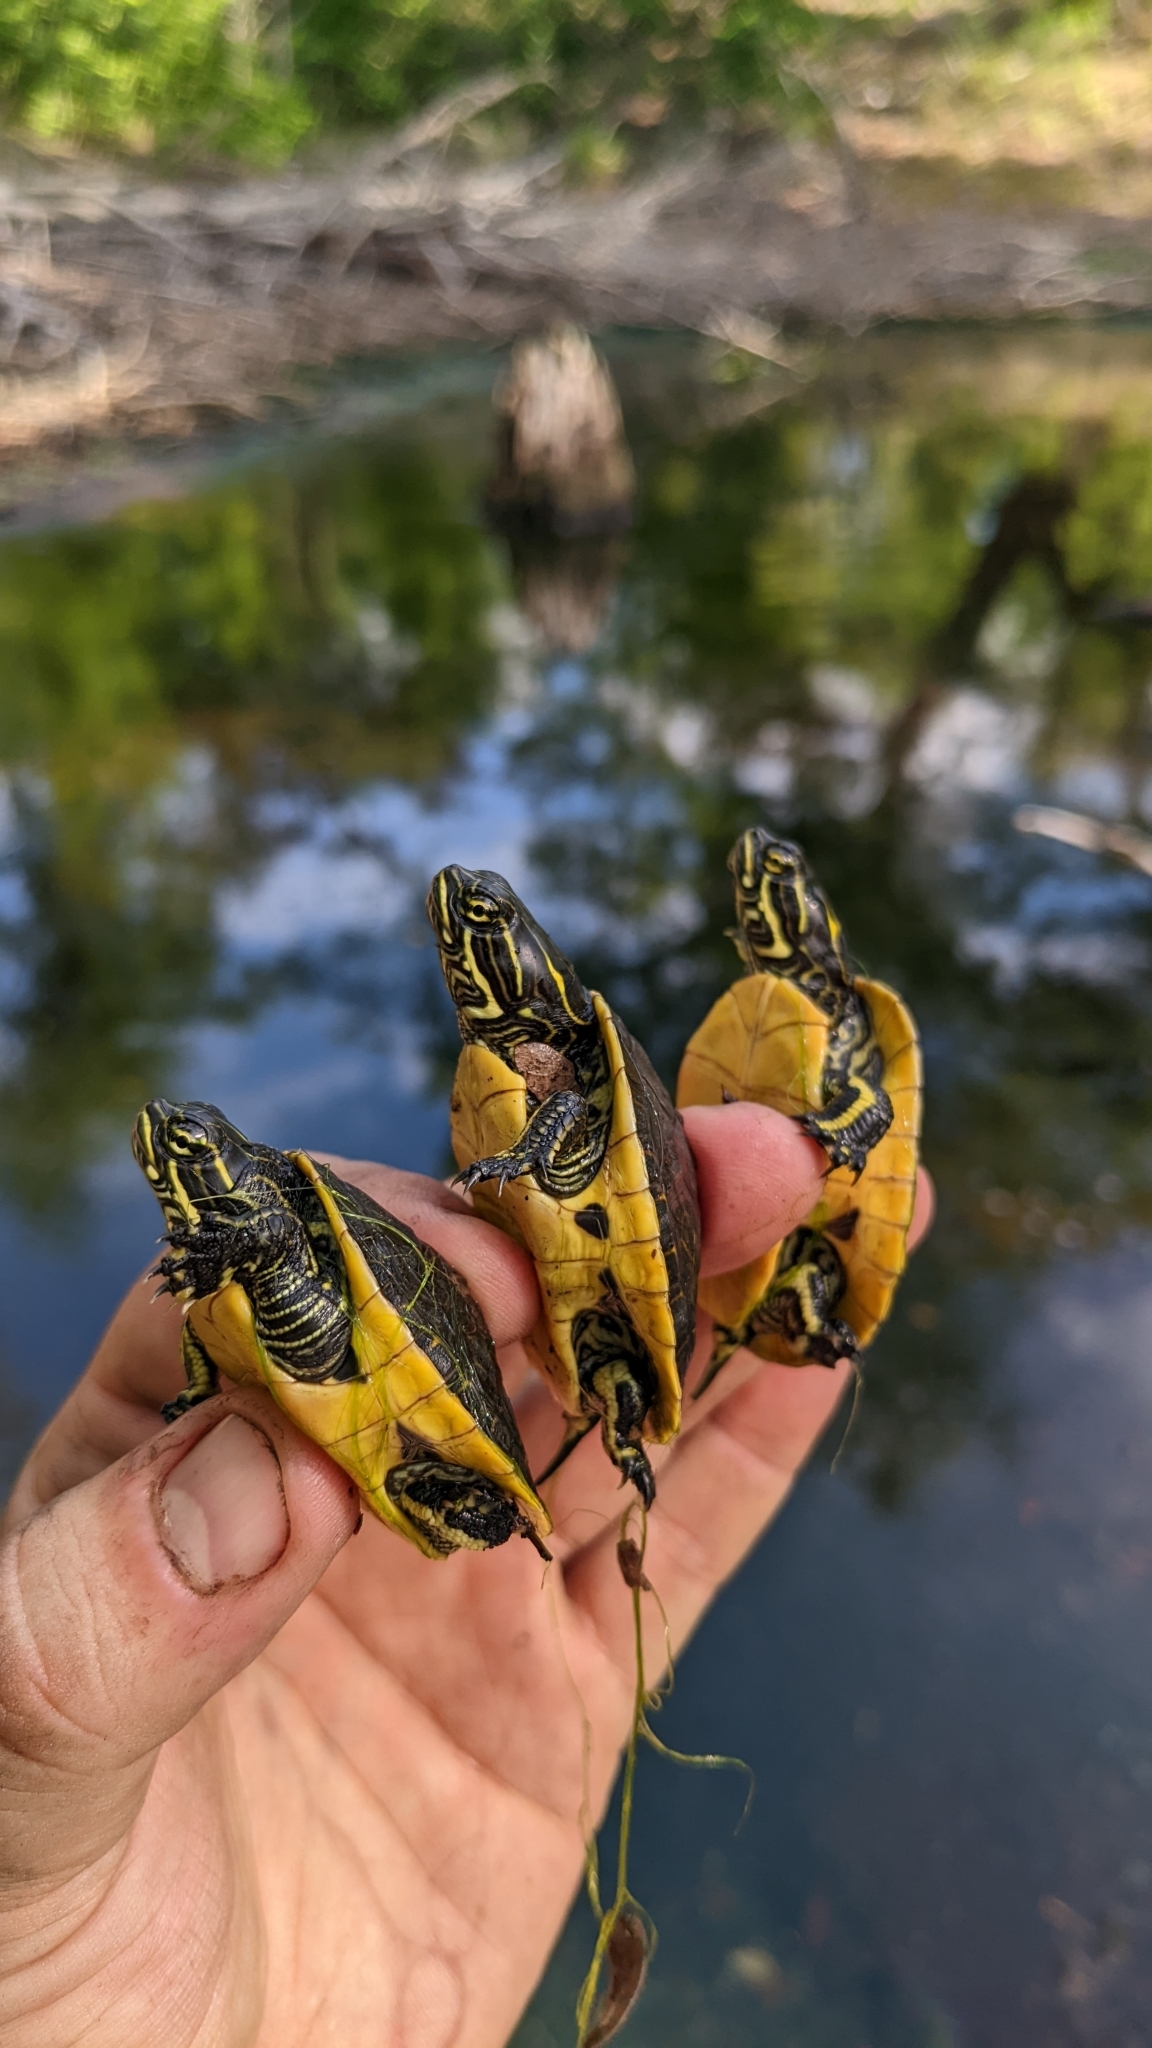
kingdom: Animalia
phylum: Chordata
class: Testudines
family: Emydidae
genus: Deirochelys
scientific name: Deirochelys reticularia
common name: Chicken turtle
